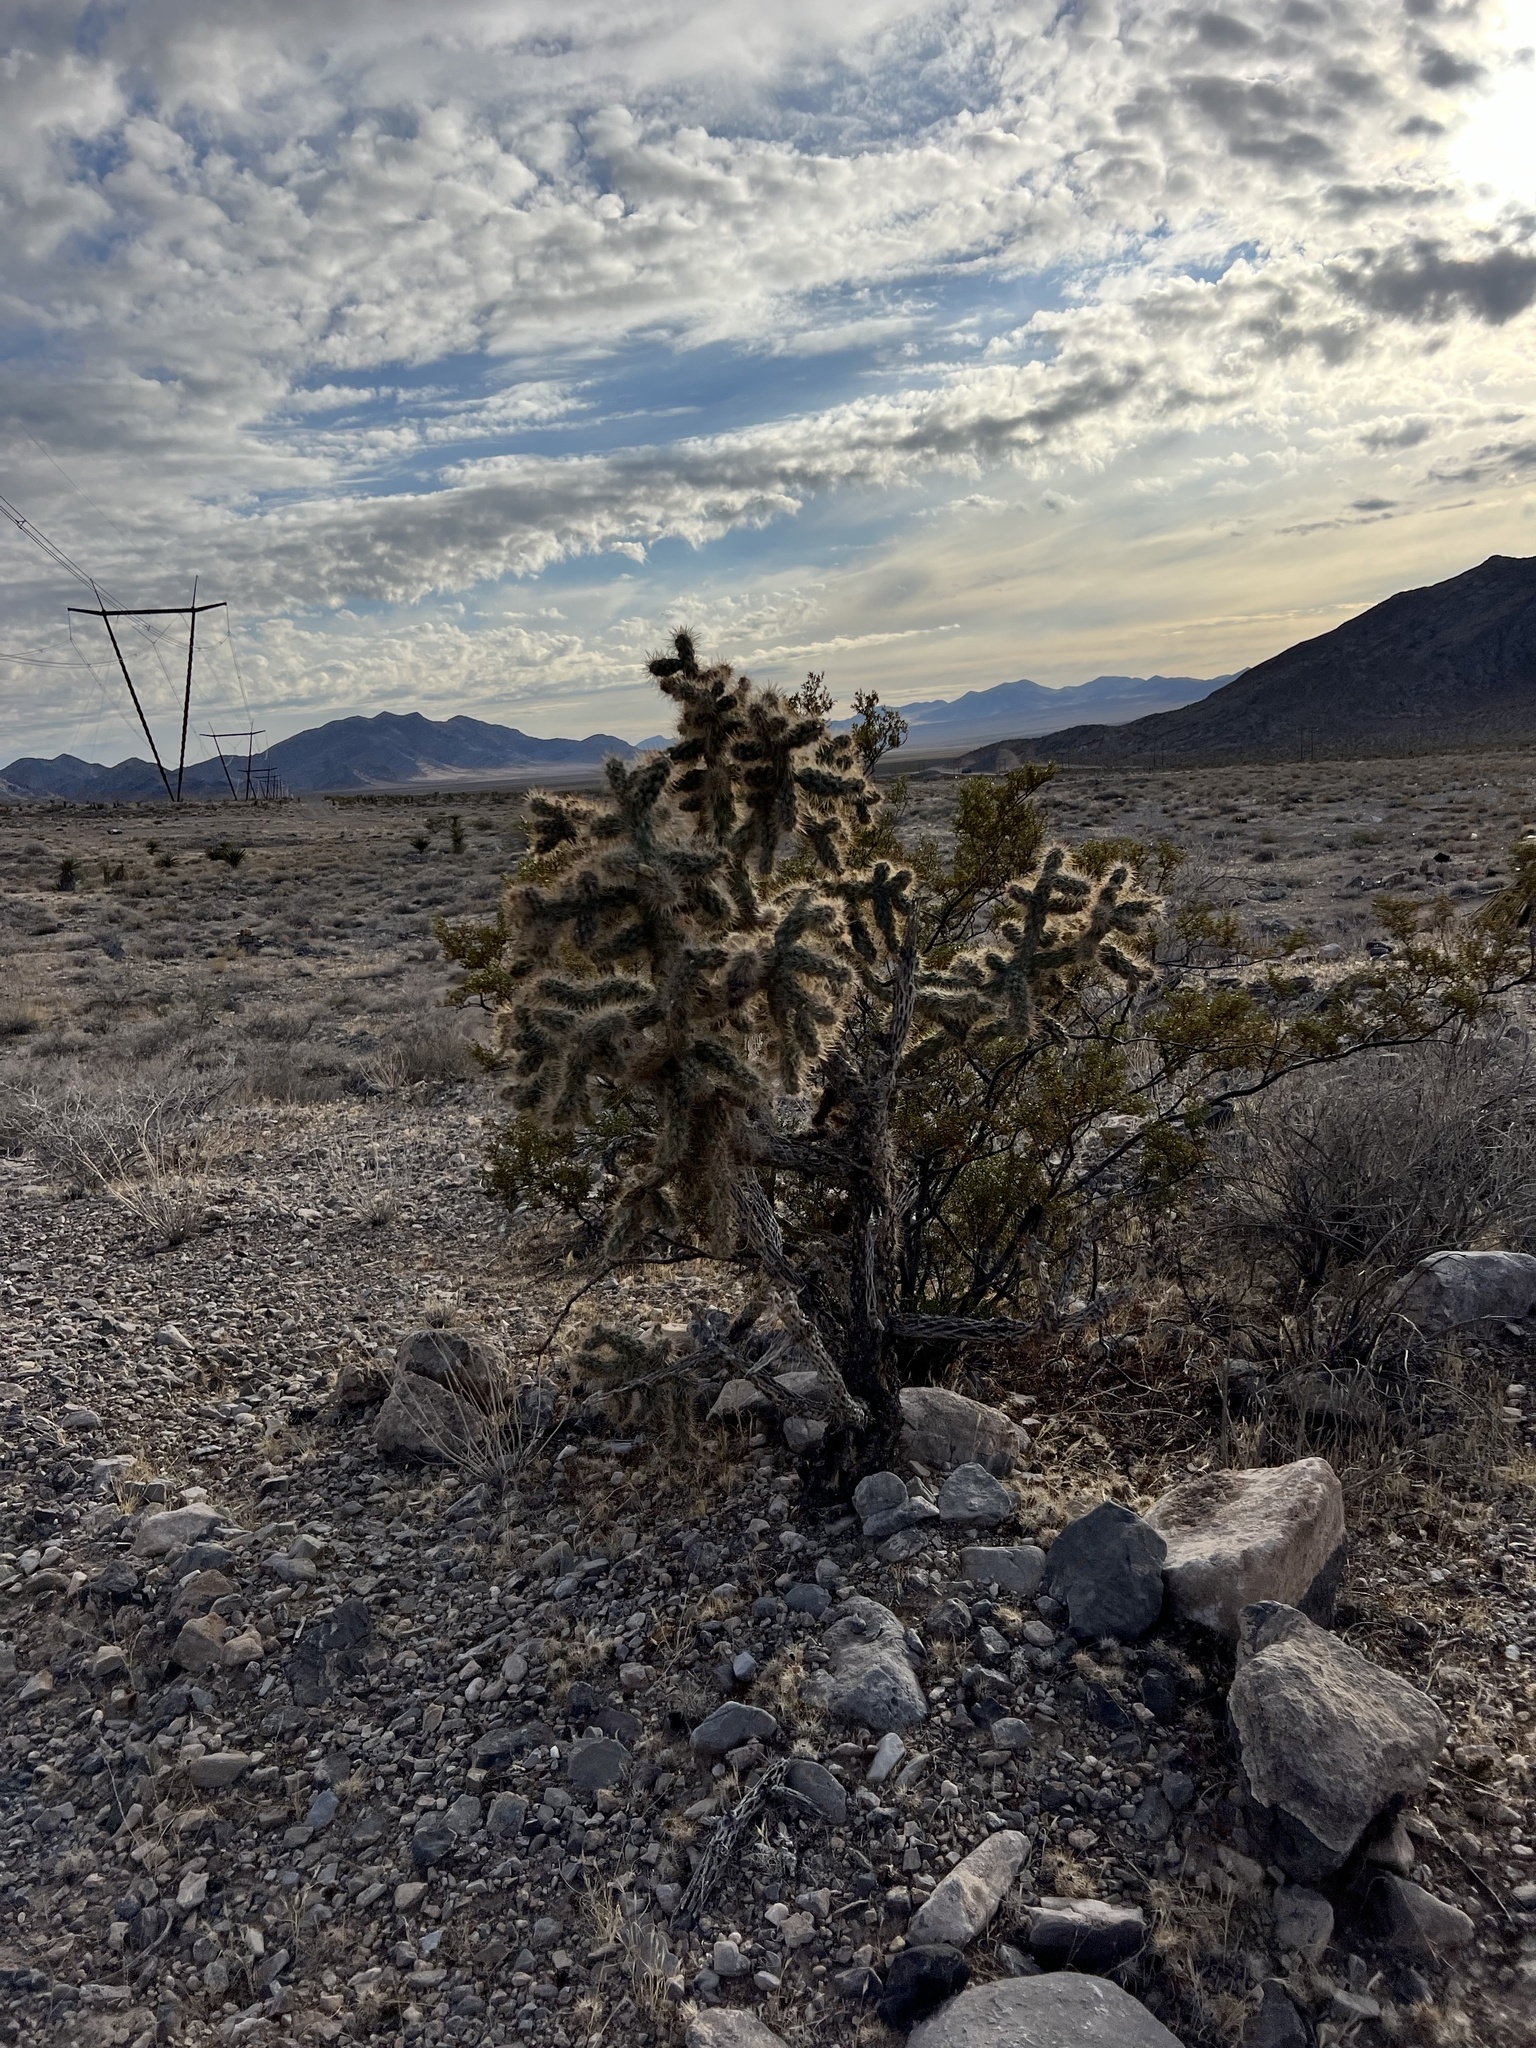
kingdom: Plantae
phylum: Tracheophyta
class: Magnoliopsida
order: Caryophyllales
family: Cactaceae
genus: Cylindropuntia
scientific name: Cylindropuntia echinocarpa
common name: Ground cholla
